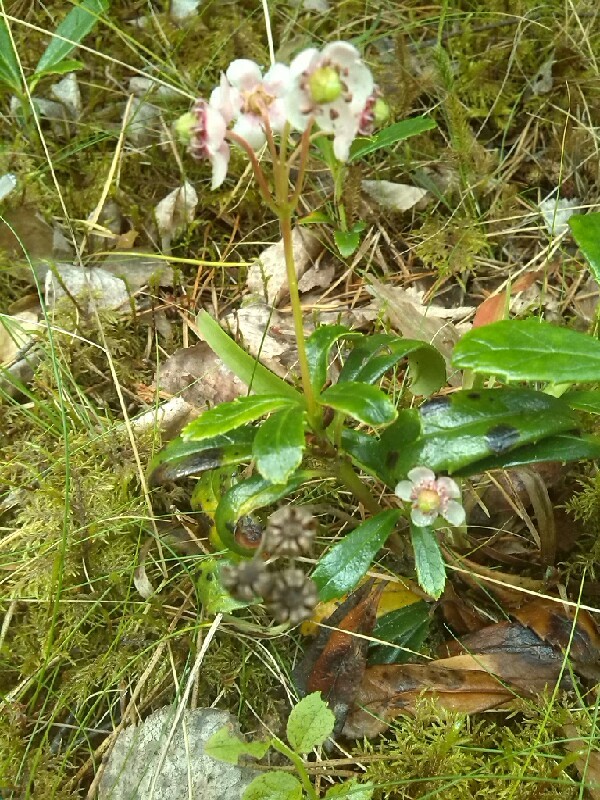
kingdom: Plantae
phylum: Tracheophyta
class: Magnoliopsida
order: Ericales
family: Ericaceae
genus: Chimaphila
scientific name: Chimaphila umbellata
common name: Pipsissewa
